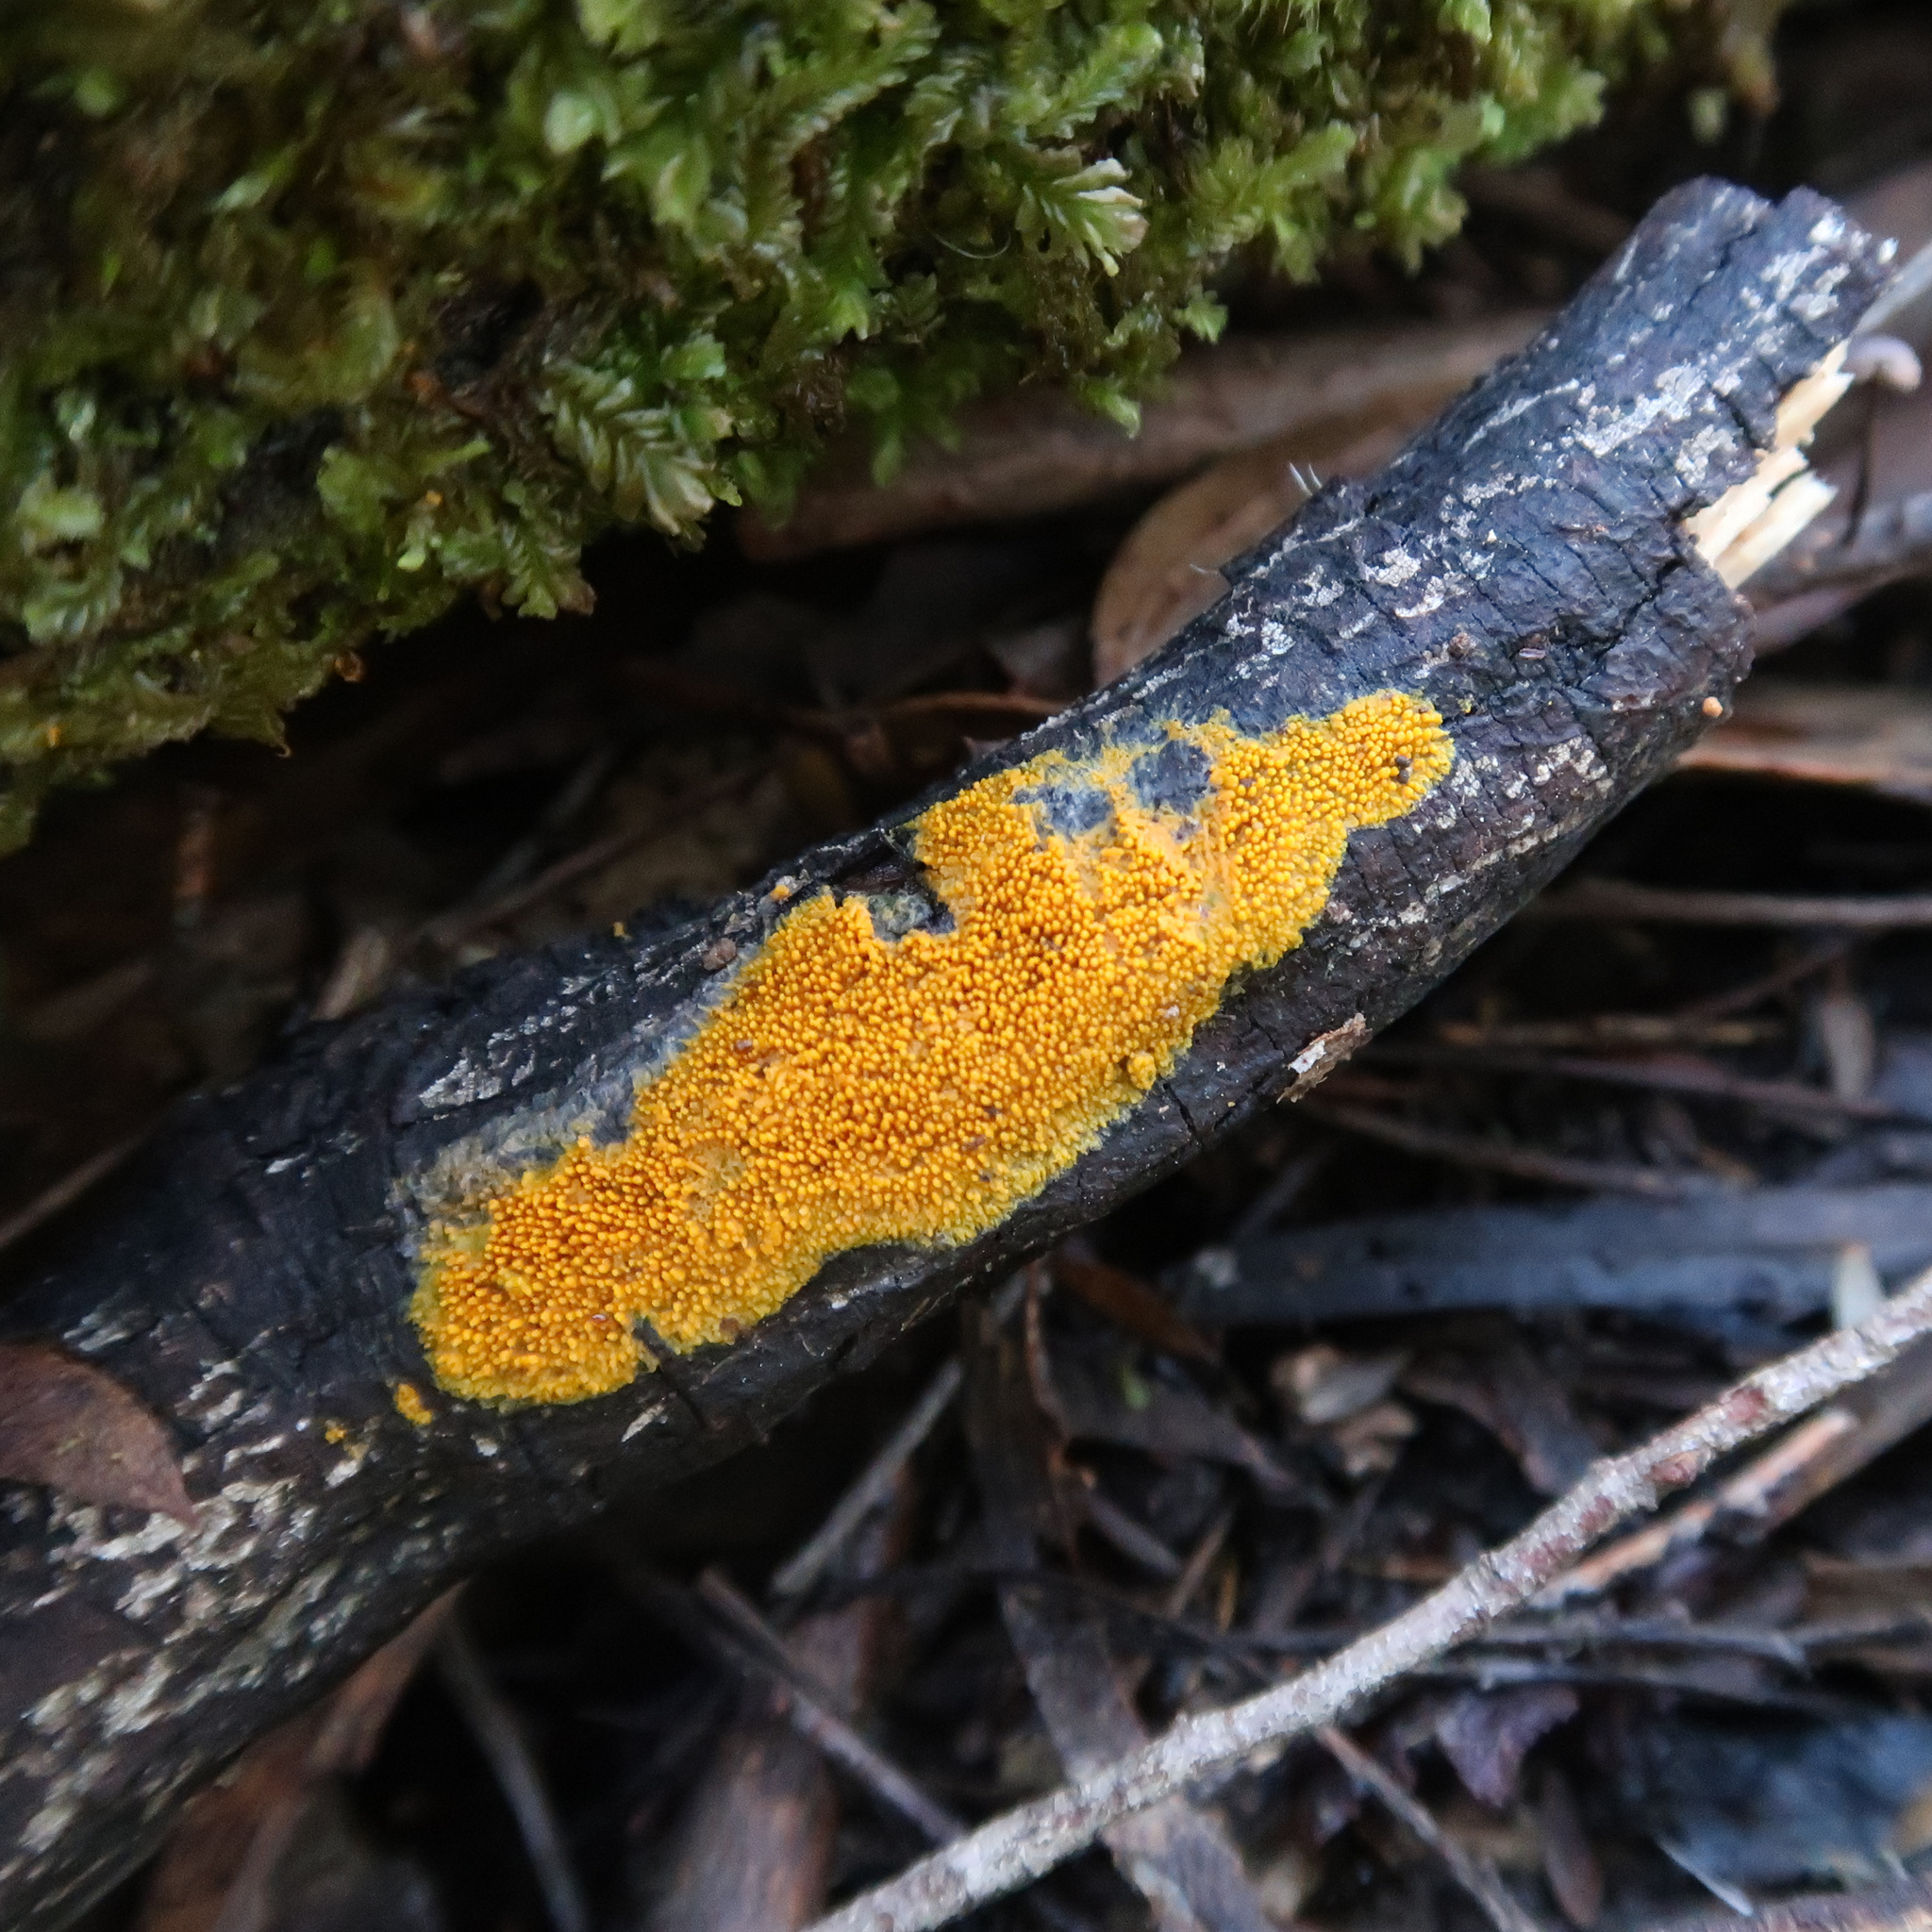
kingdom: Fungi
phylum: Basidiomycota
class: Agaricomycetes
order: Polyporales
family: Meruliaceae
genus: Phlebia
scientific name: Phlebia subceracea
